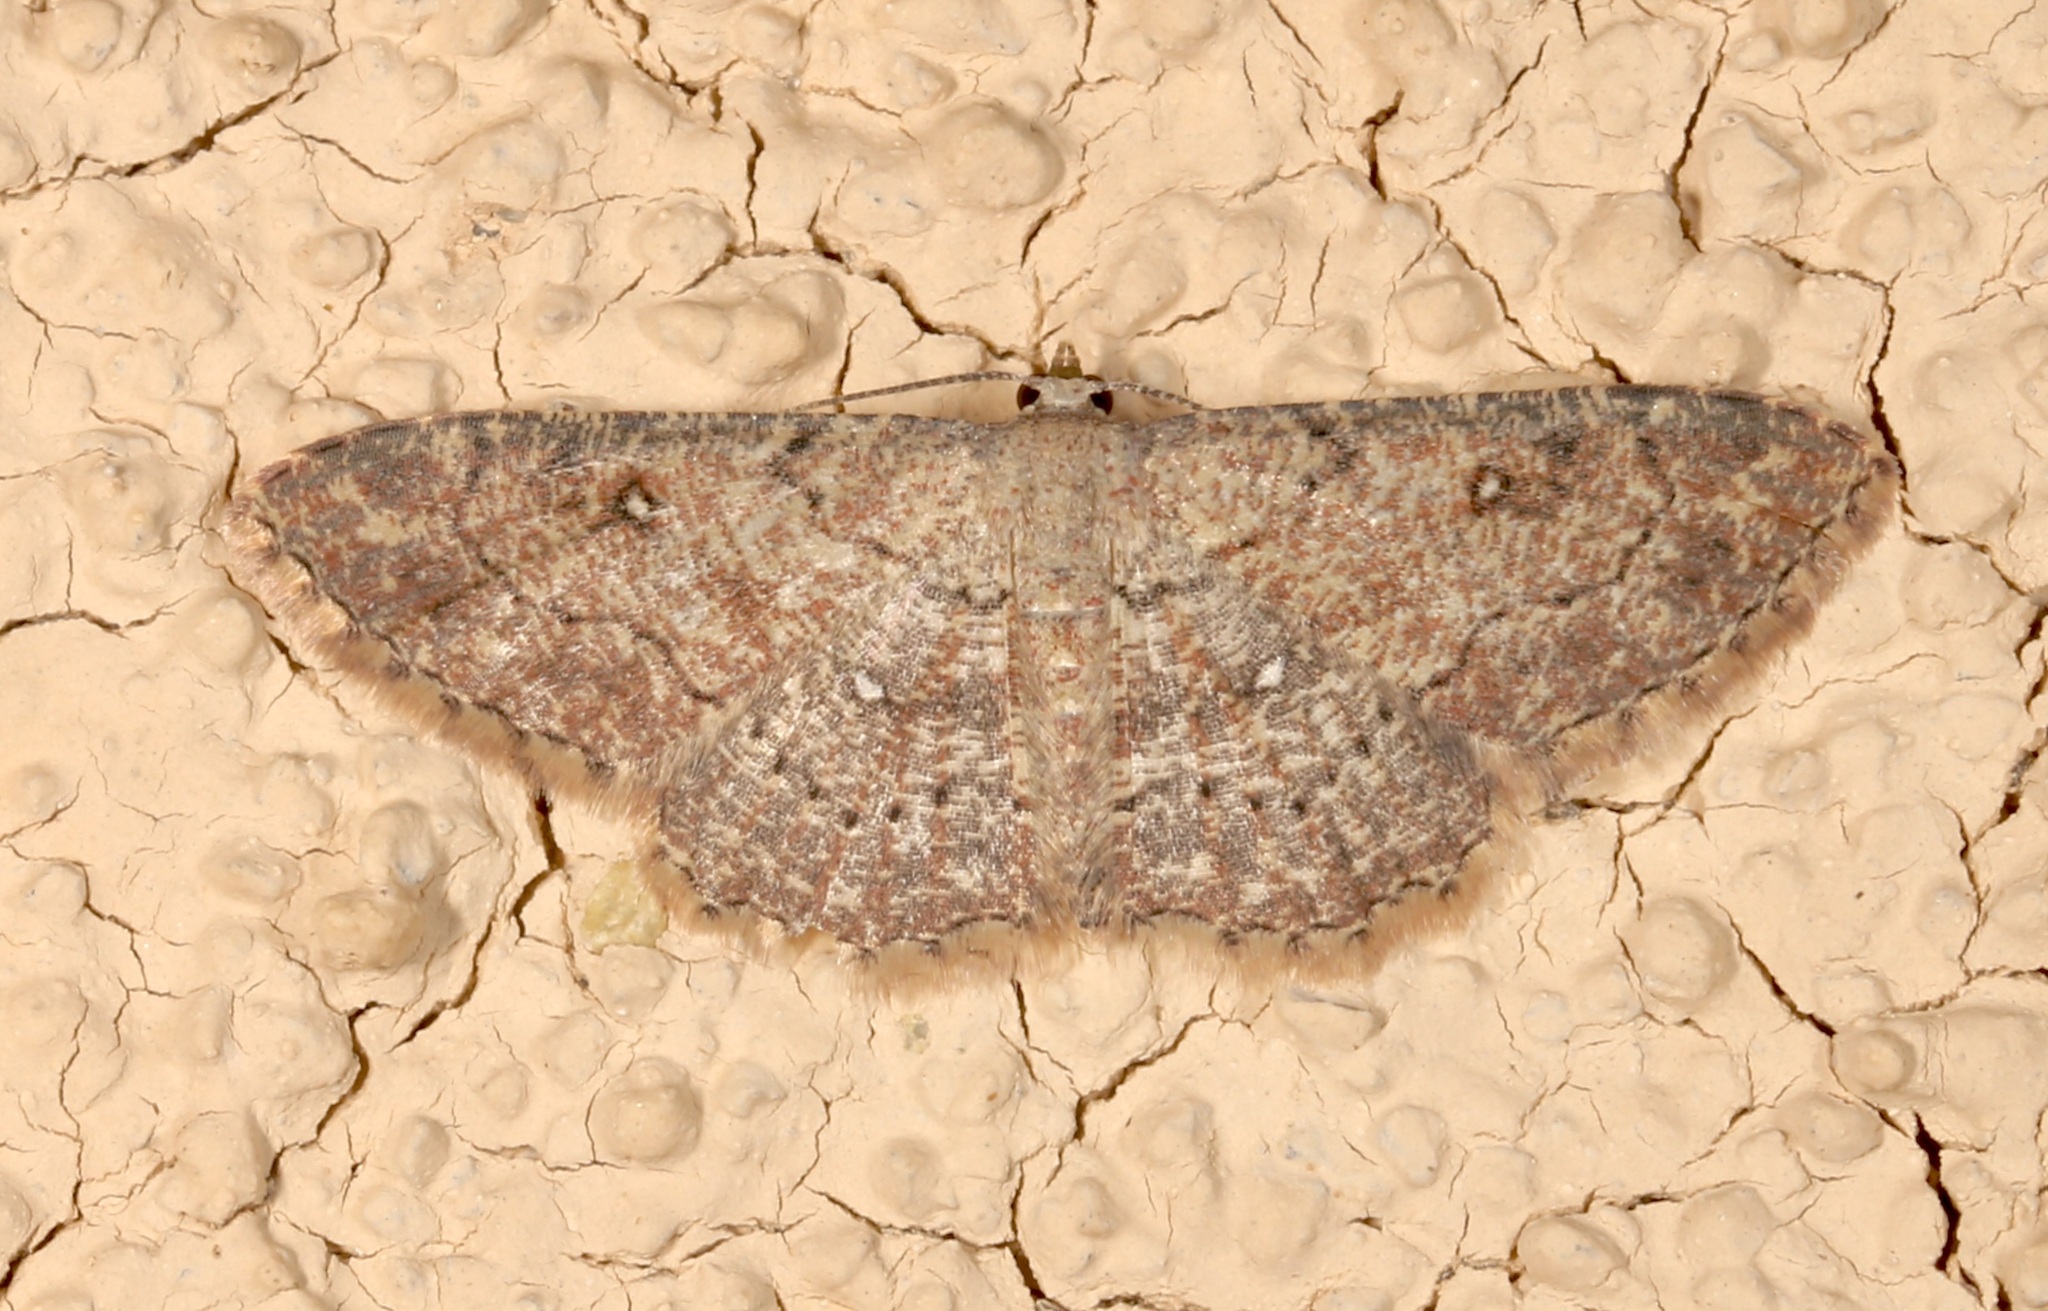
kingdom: Animalia
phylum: Arthropoda
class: Insecta
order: Lepidoptera
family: Geometridae
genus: Cyclophora
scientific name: Cyclophora nanaria
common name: Cankerworm
